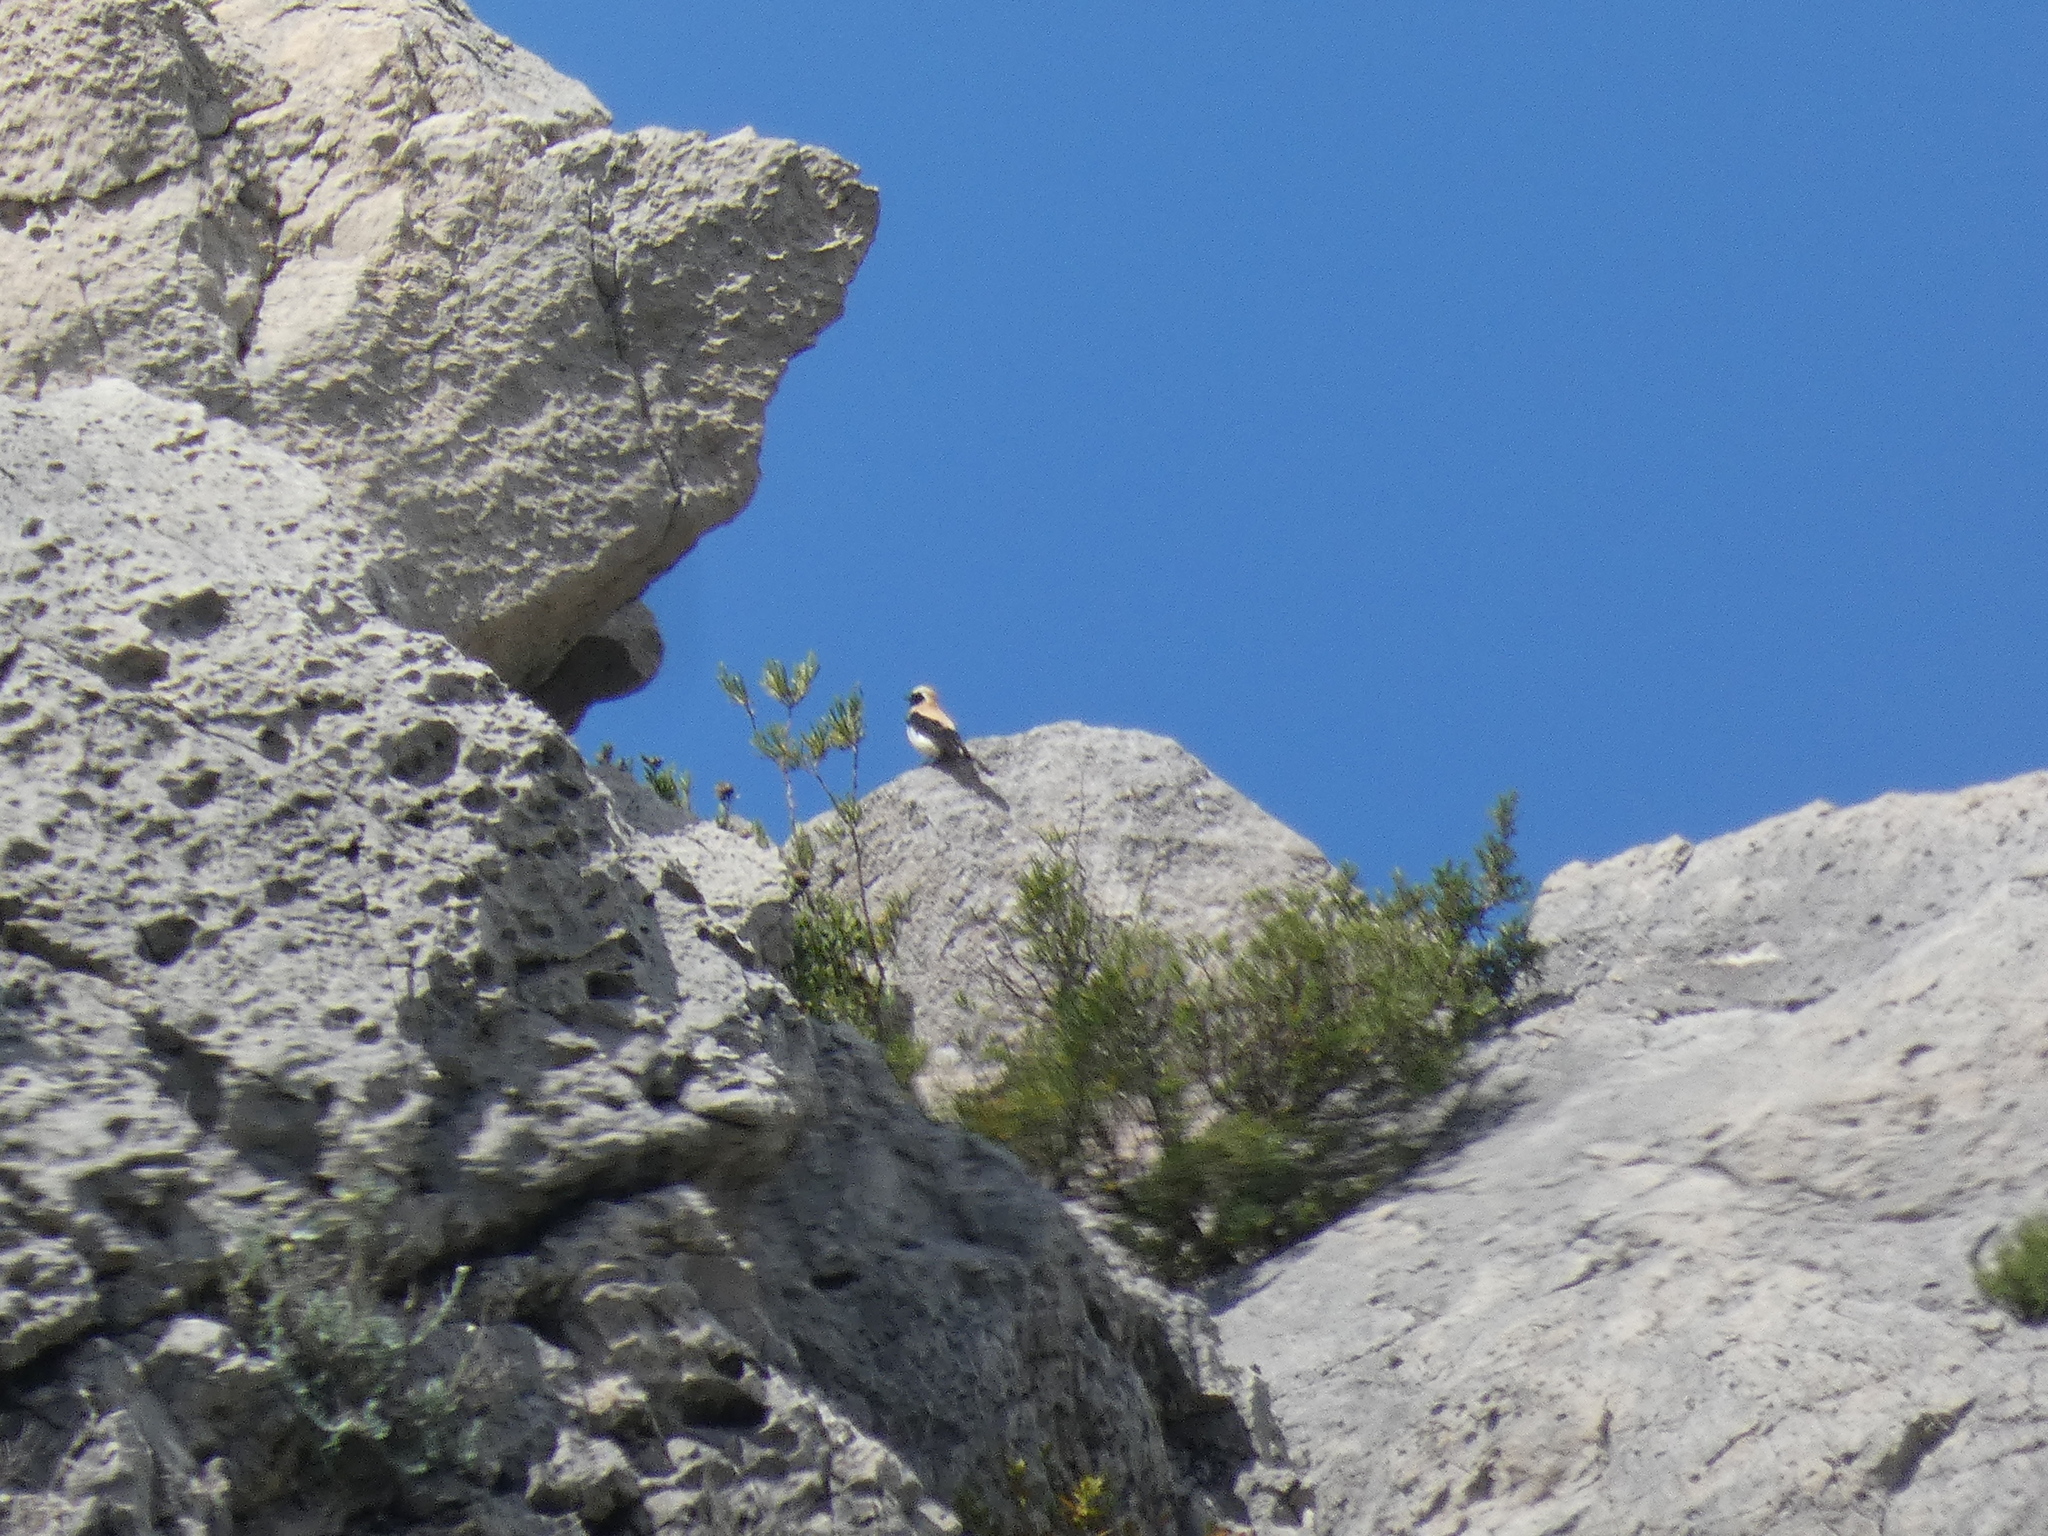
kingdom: Animalia
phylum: Chordata
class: Aves
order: Passeriformes
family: Muscicapidae
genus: Oenanthe
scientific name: Oenanthe hispanica
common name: Black-eared wheatear
